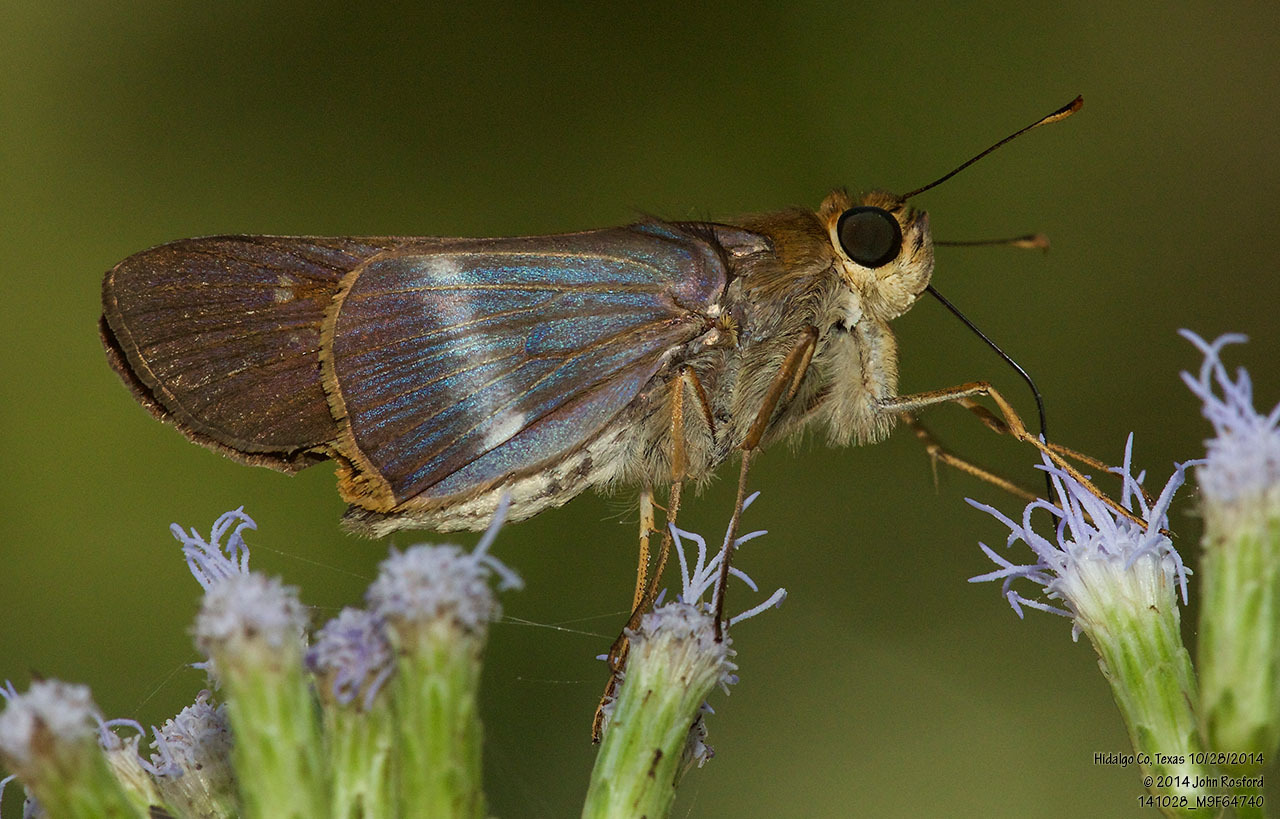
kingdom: Animalia
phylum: Arthropoda
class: Insecta
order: Lepidoptera
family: Hesperiidae
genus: Panoquina
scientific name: Panoquina fusina
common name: Evans' skipper
